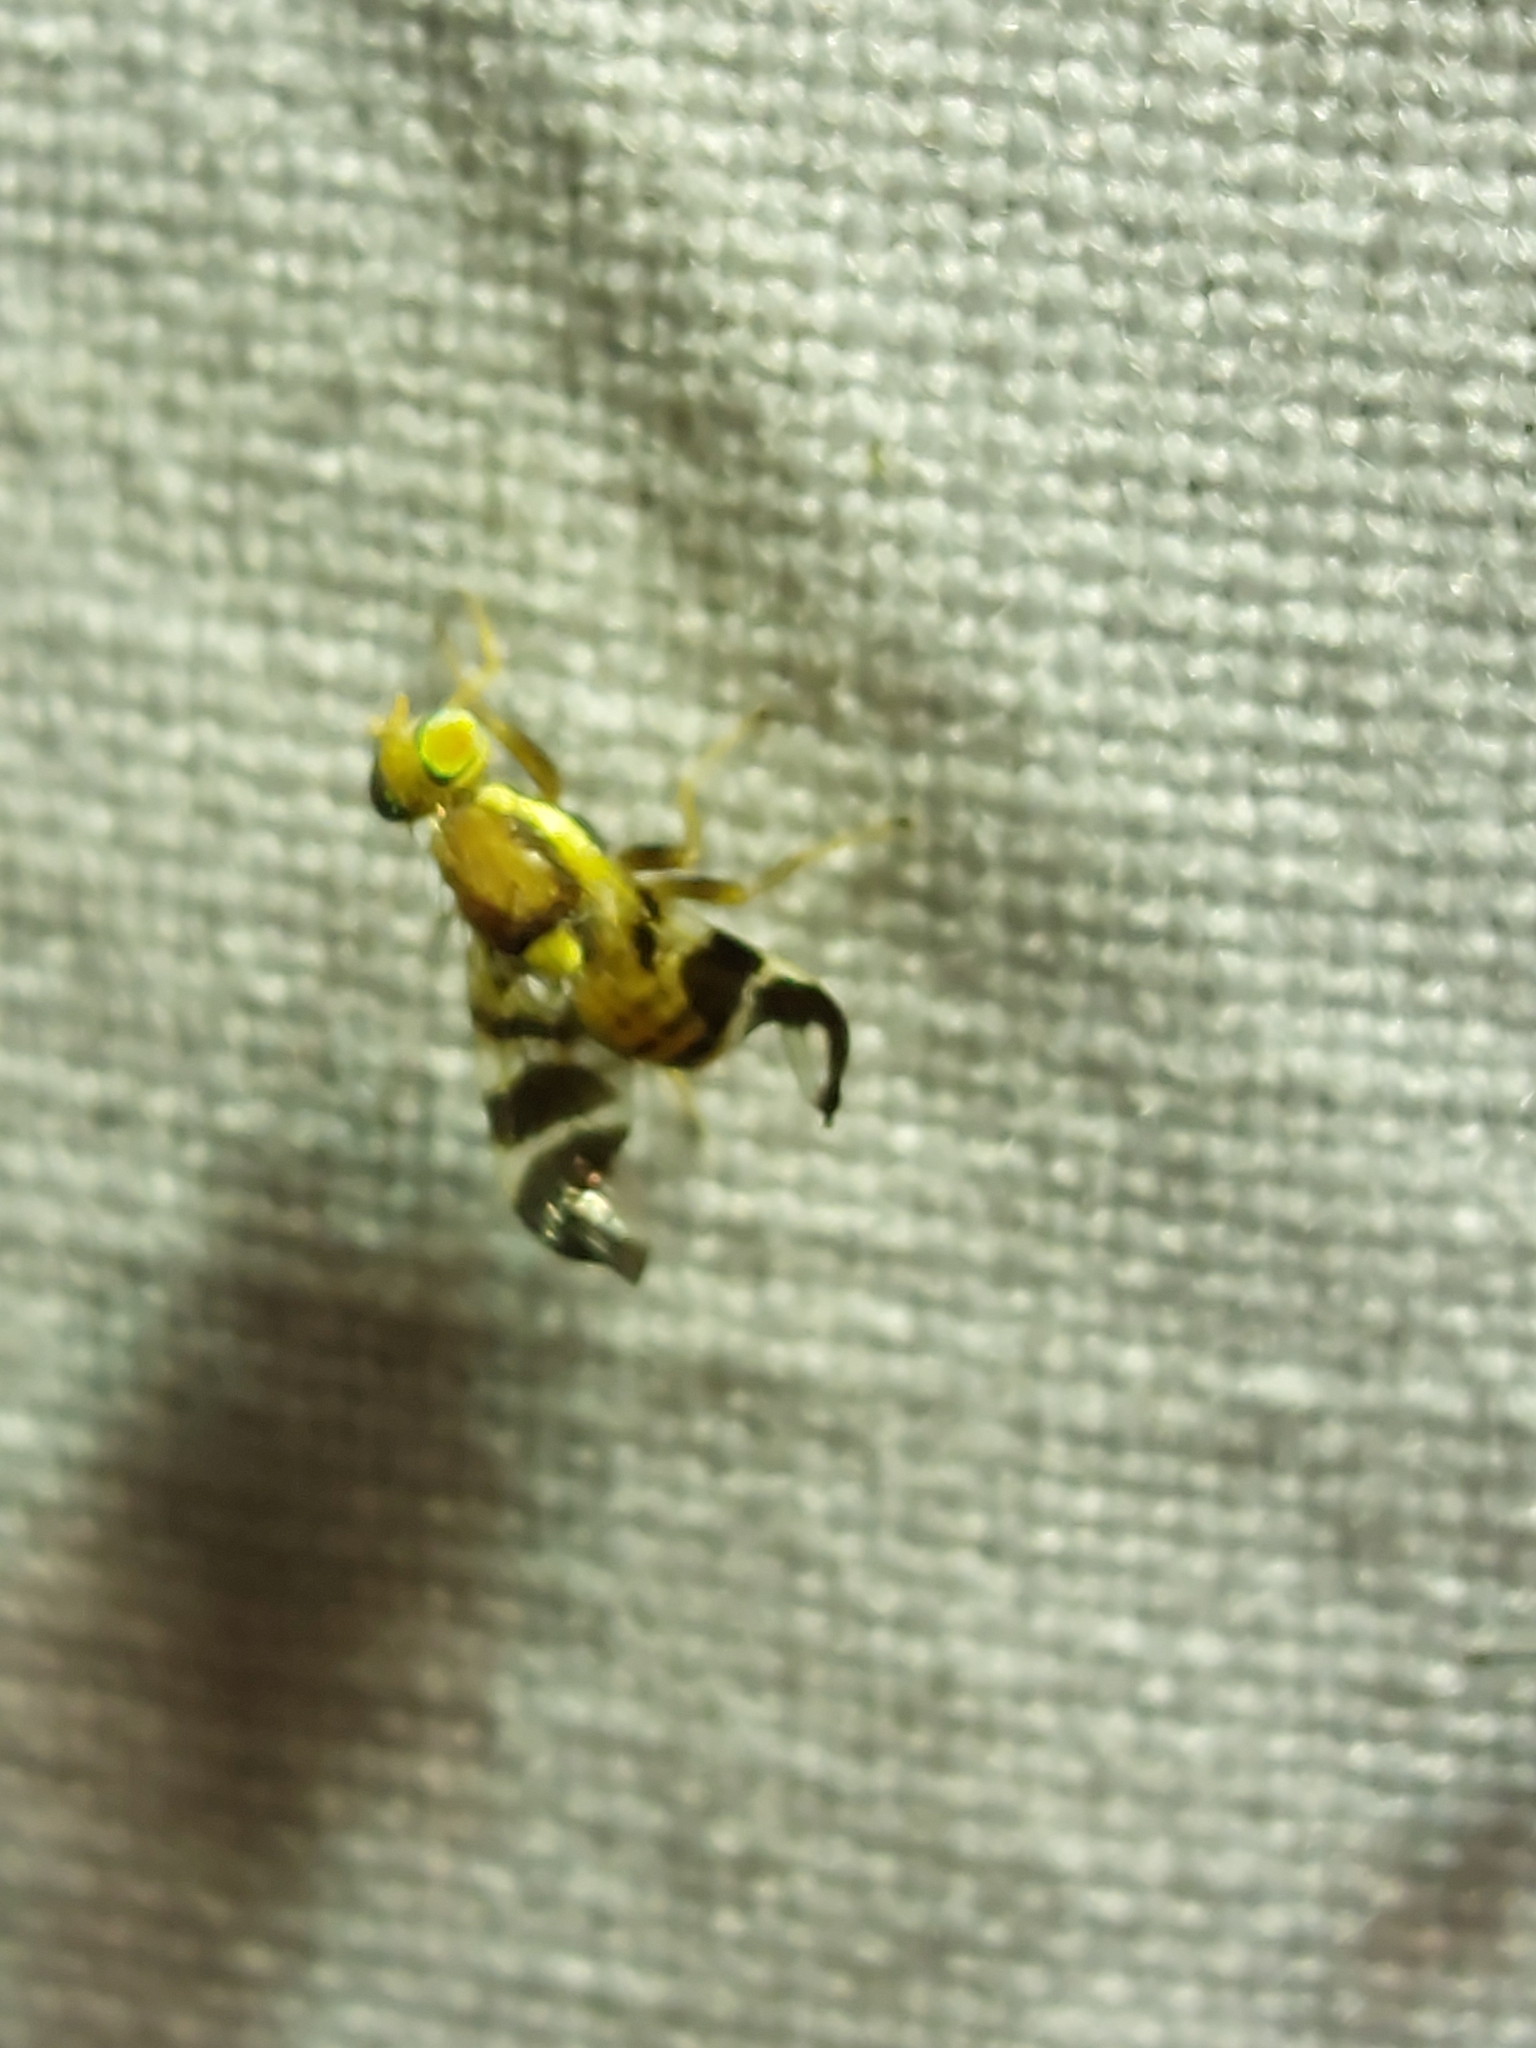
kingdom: Animalia
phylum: Arthropoda
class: Insecta
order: Diptera
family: Tephritidae
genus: Rhagoletis
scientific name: Rhagoletis completa
